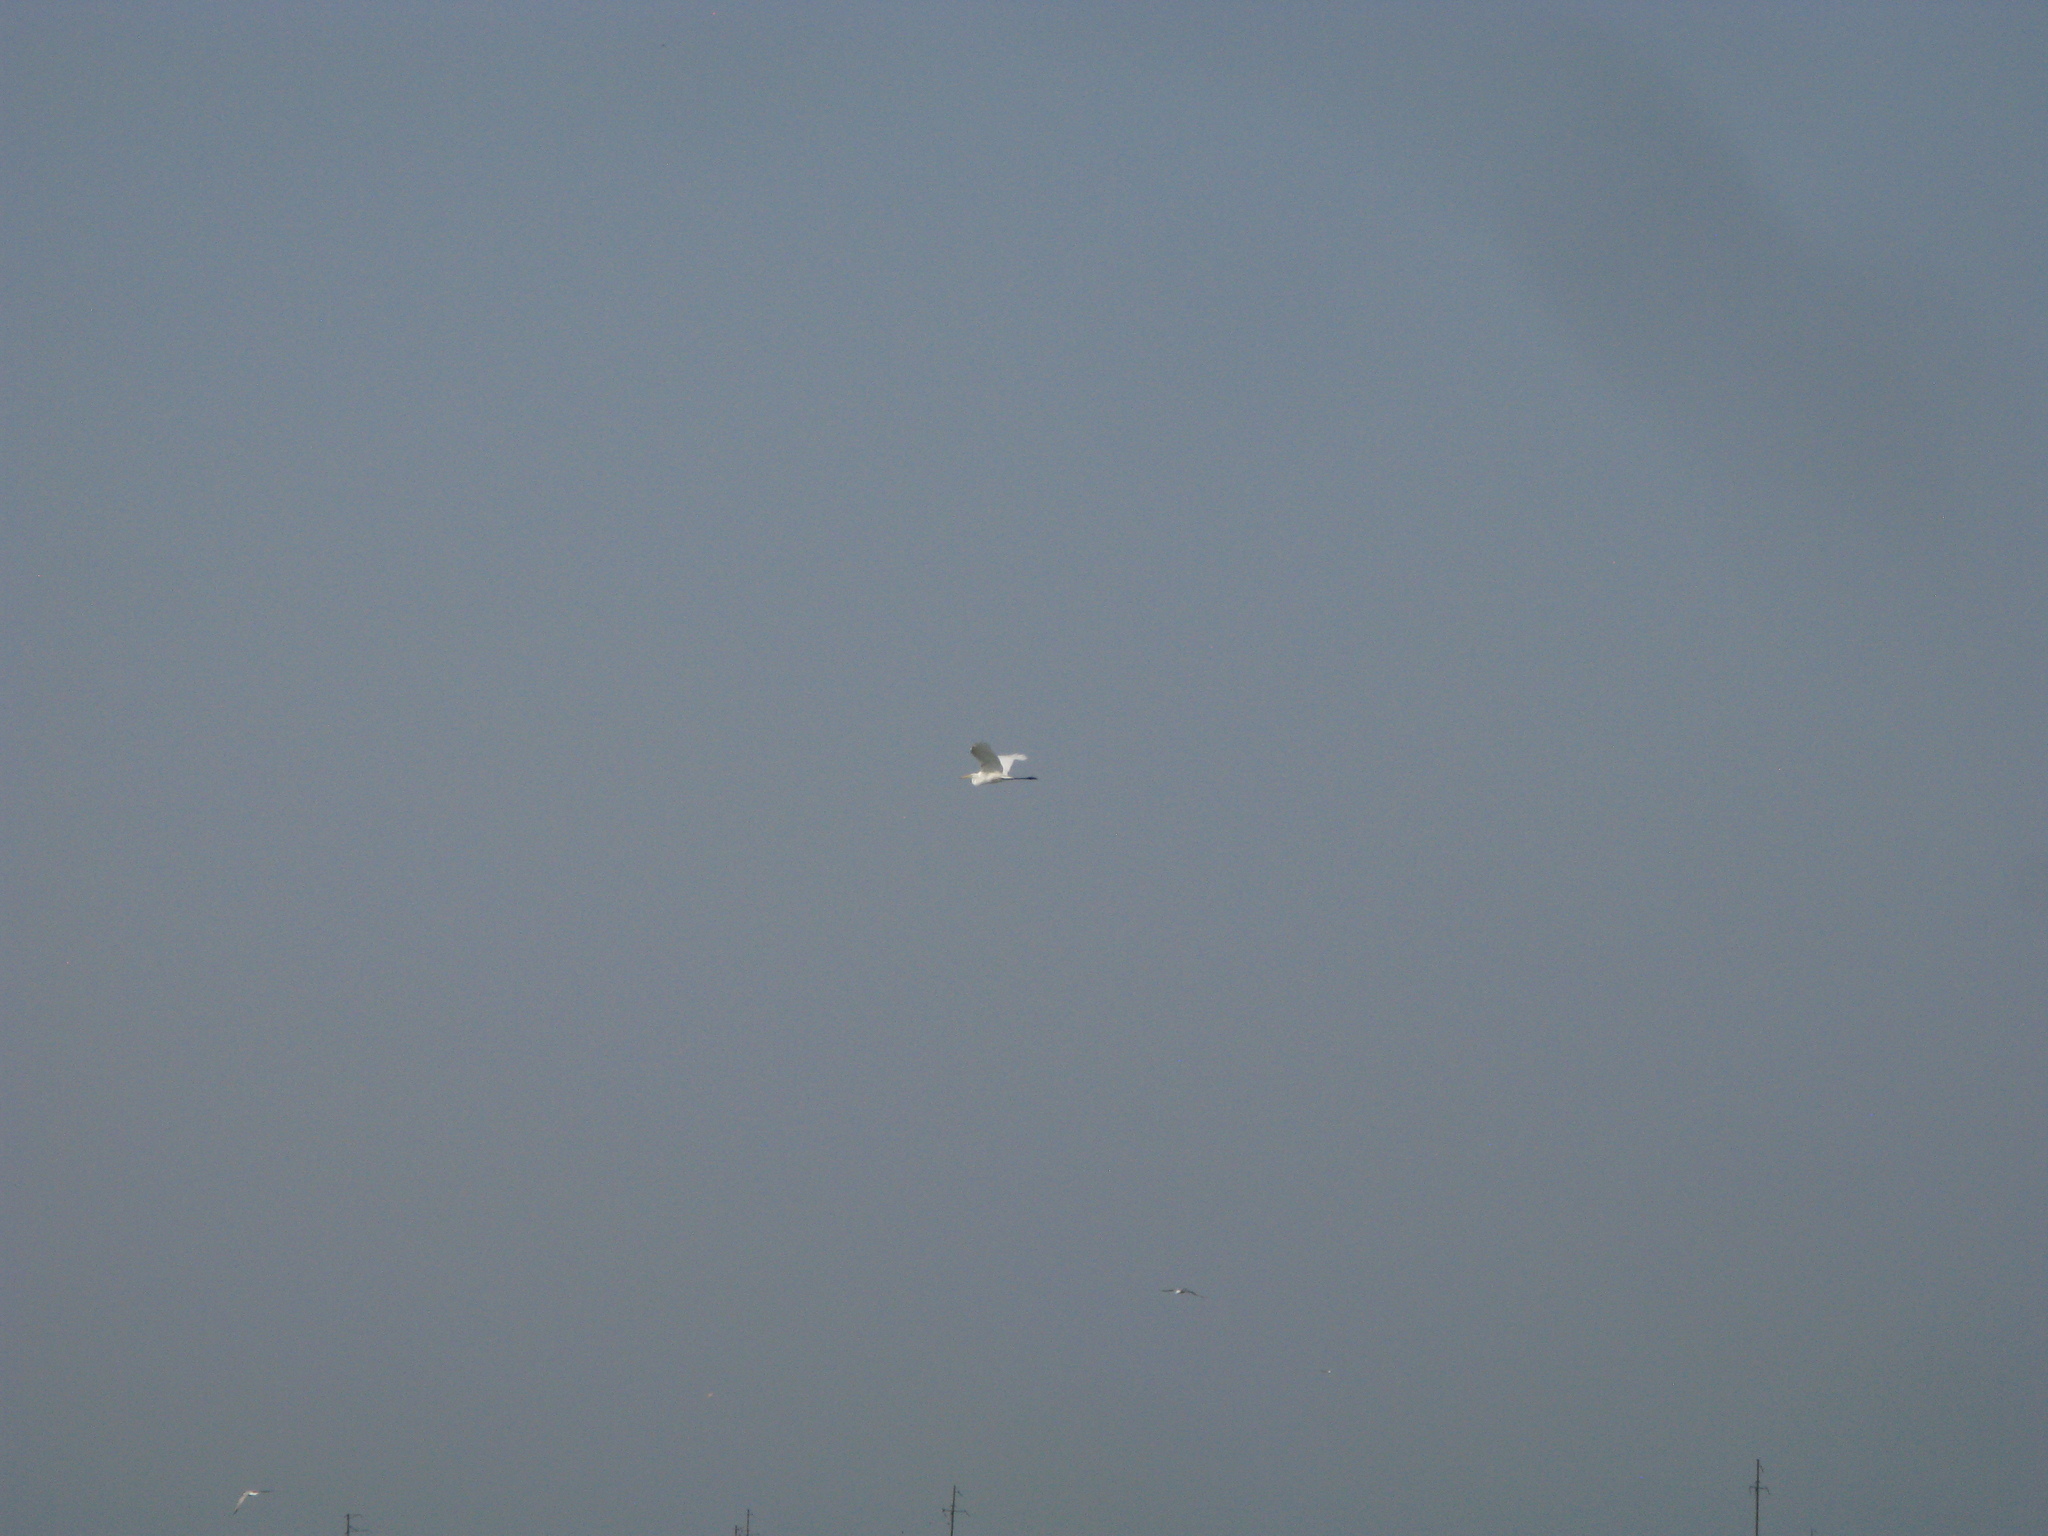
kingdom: Animalia
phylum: Chordata
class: Aves
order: Pelecaniformes
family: Ardeidae
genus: Ardea
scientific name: Ardea alba
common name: Great egret
